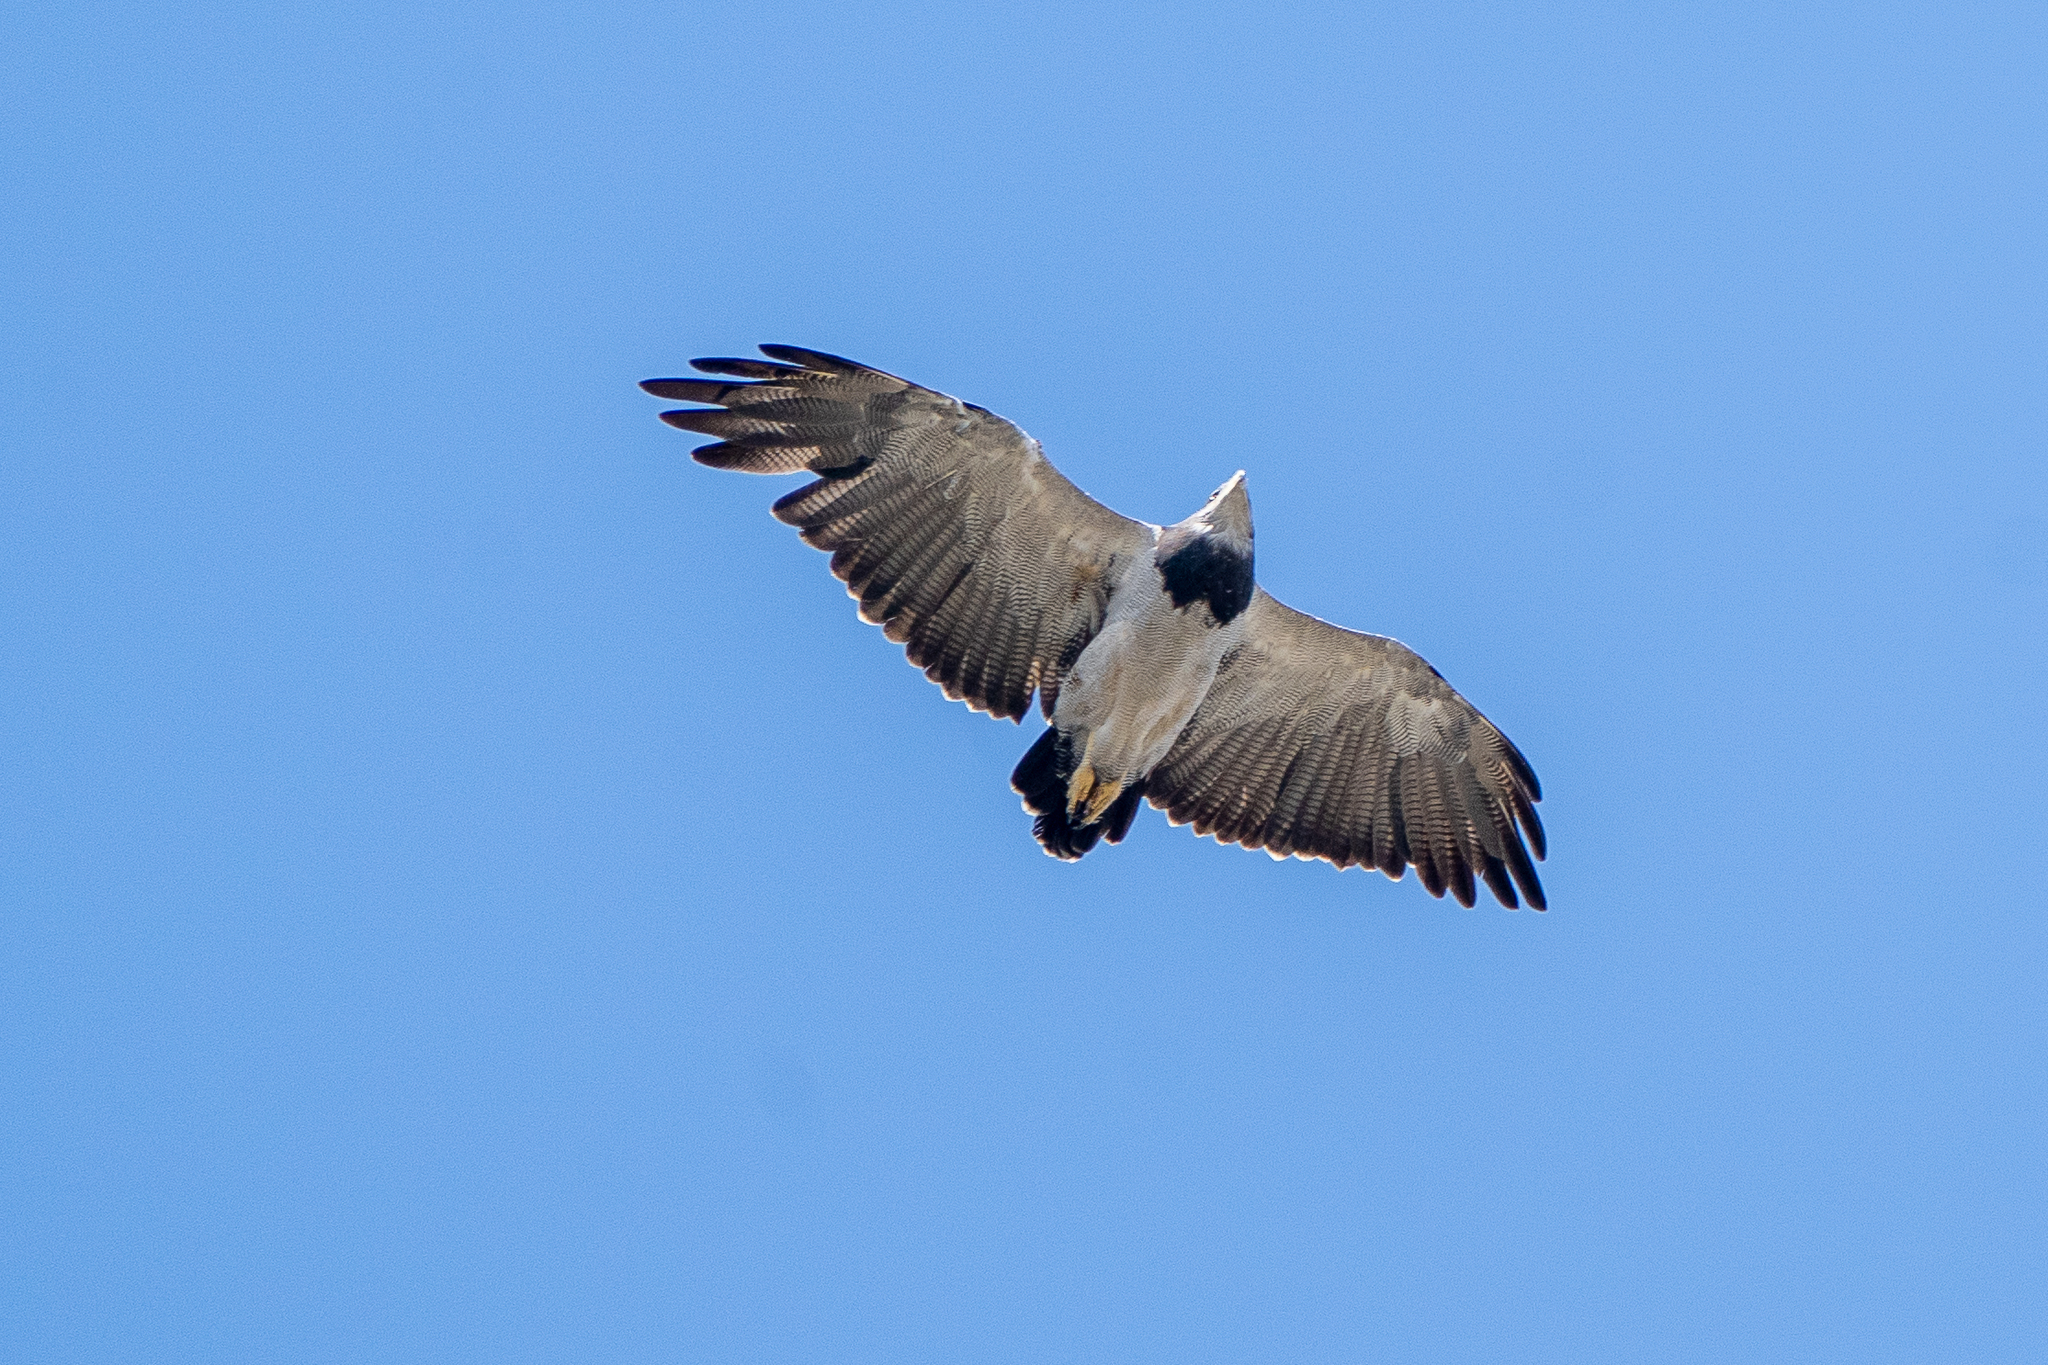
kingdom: Animalia
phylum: Chordata
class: Aves
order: Accipitriformes
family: Accipitridae
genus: Geranoaetus
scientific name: Geranoaetus melanoleucus
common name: Black-chested buzzard-eagle
